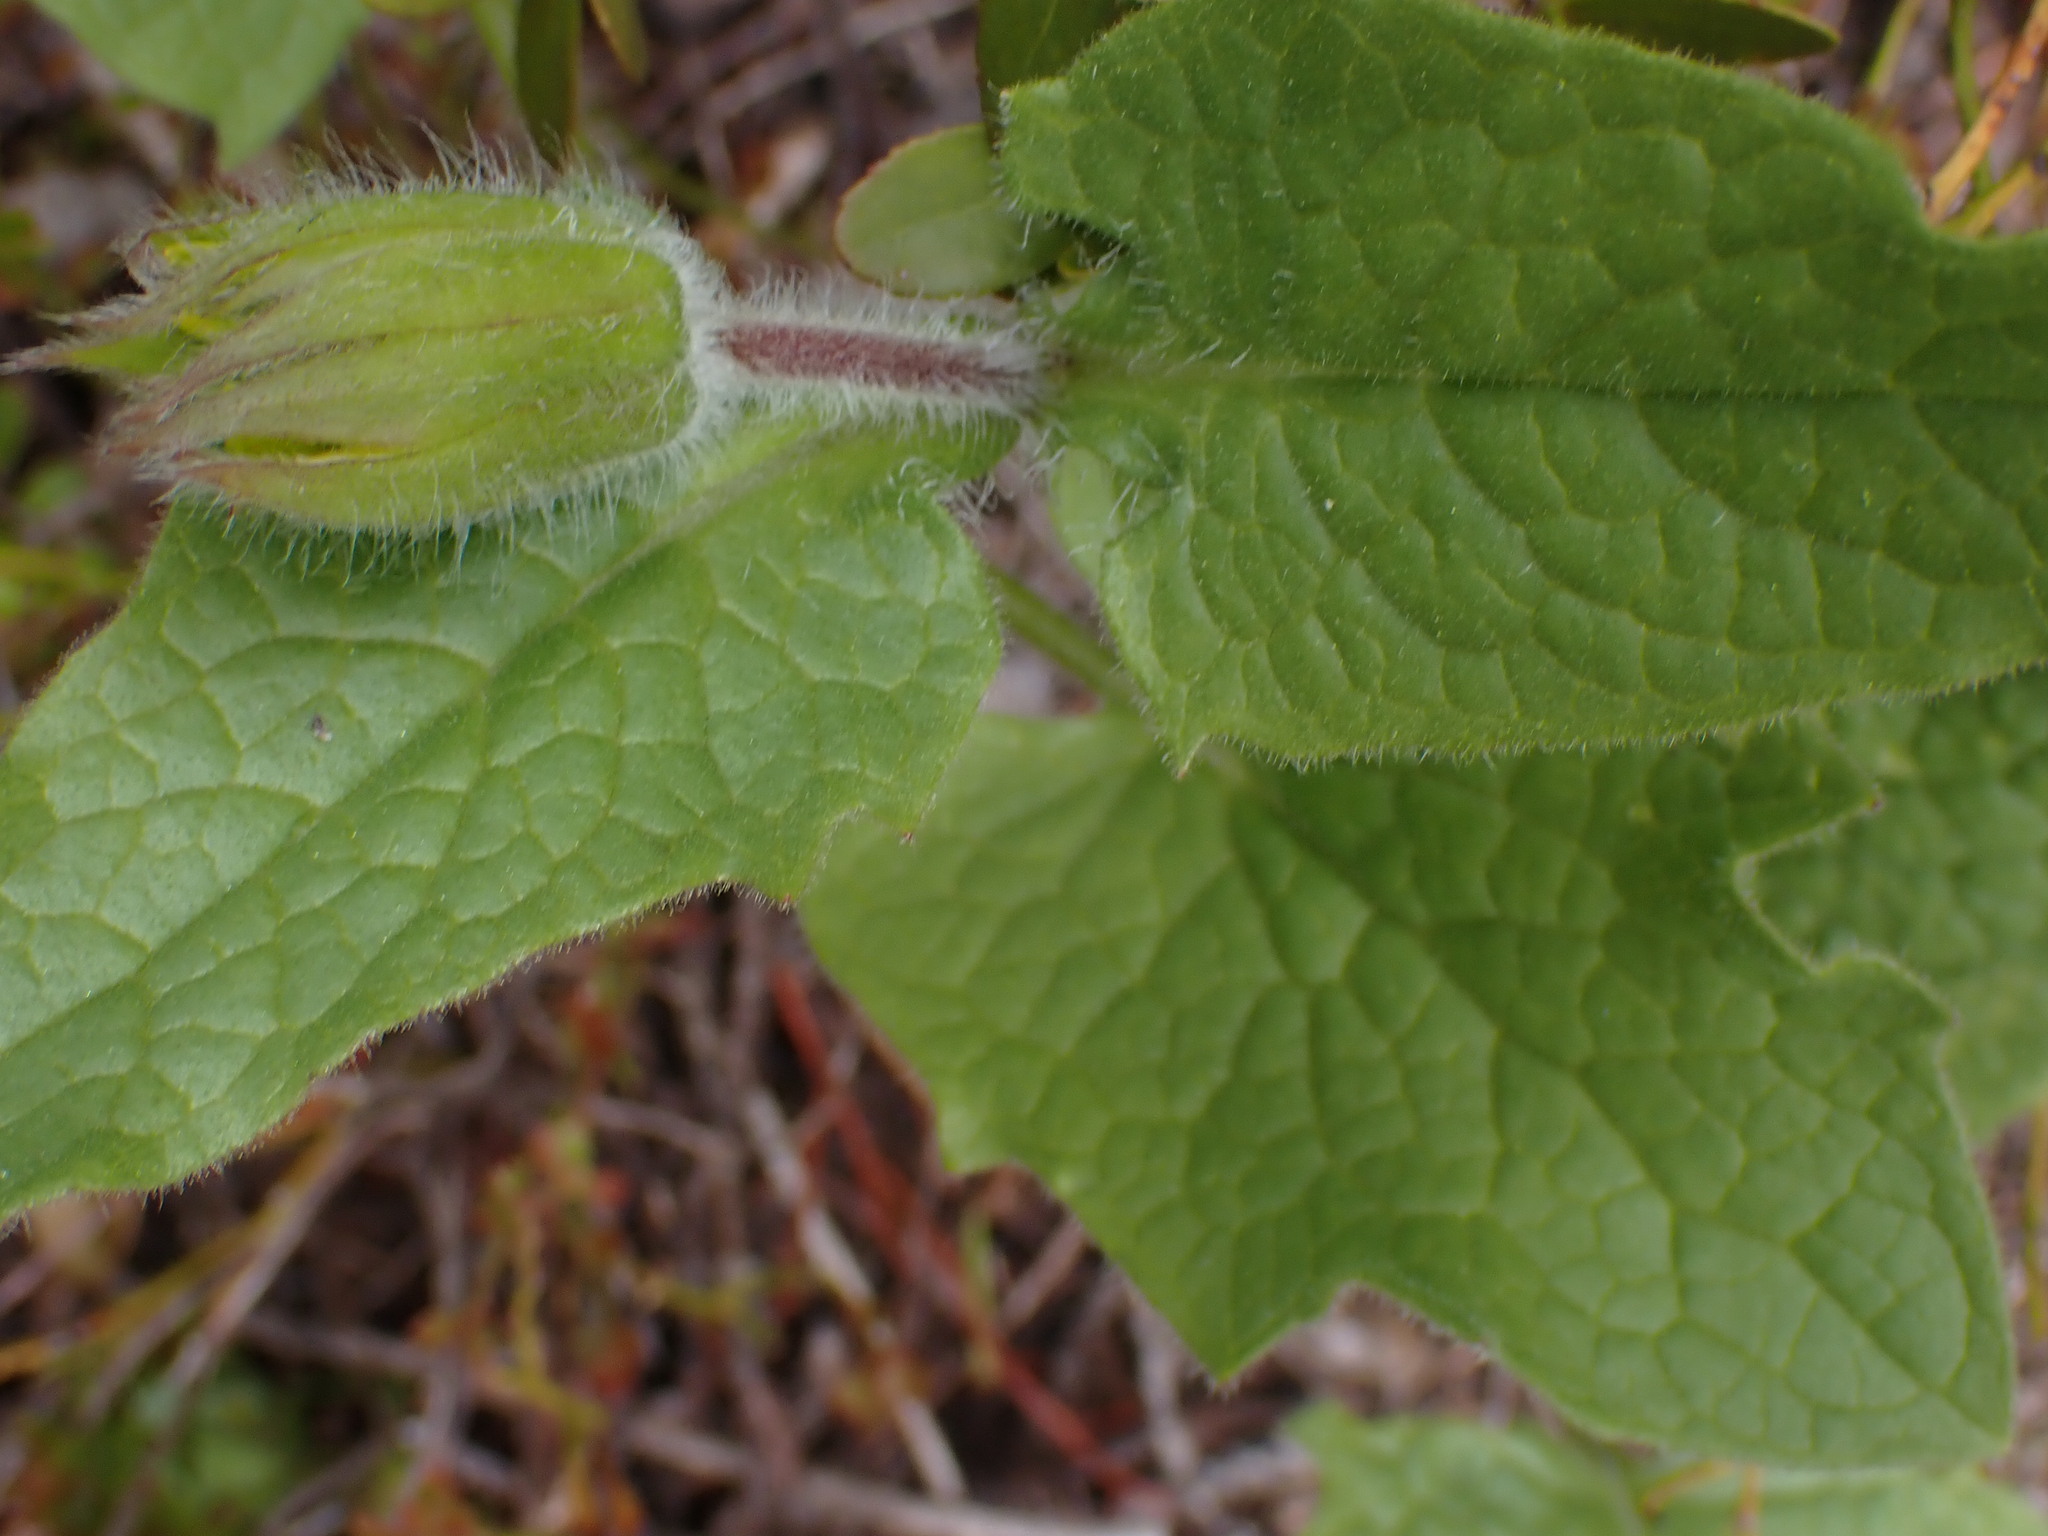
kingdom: Plantae
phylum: Tracheophyta
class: Magnoliopsida
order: Asterales
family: Asteraceae
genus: Arnica
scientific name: Arnica cordifolia
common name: Heart-leaf arnica
